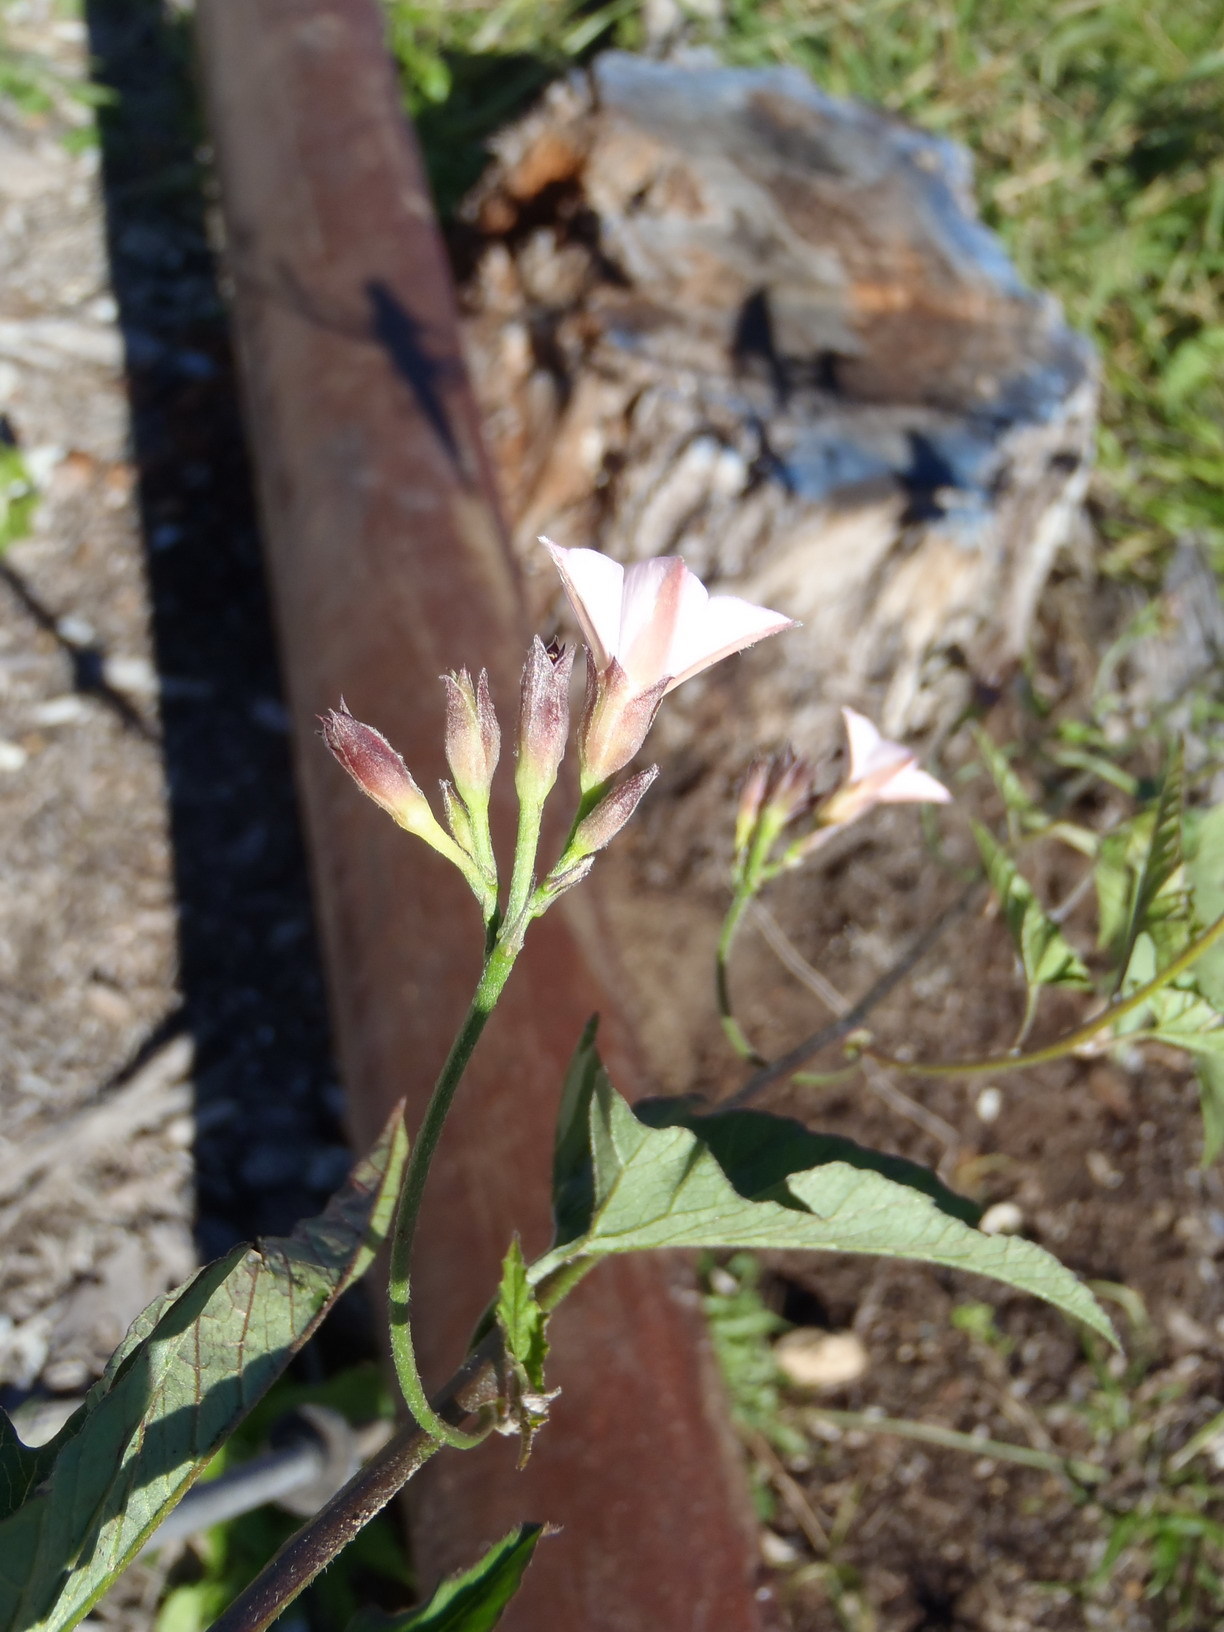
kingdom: Plantae
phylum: Tracheophyta
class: Magnoliopsida
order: Solanales
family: Convolvulaceae
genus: Convolvulus
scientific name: Convolvulus farinosus
